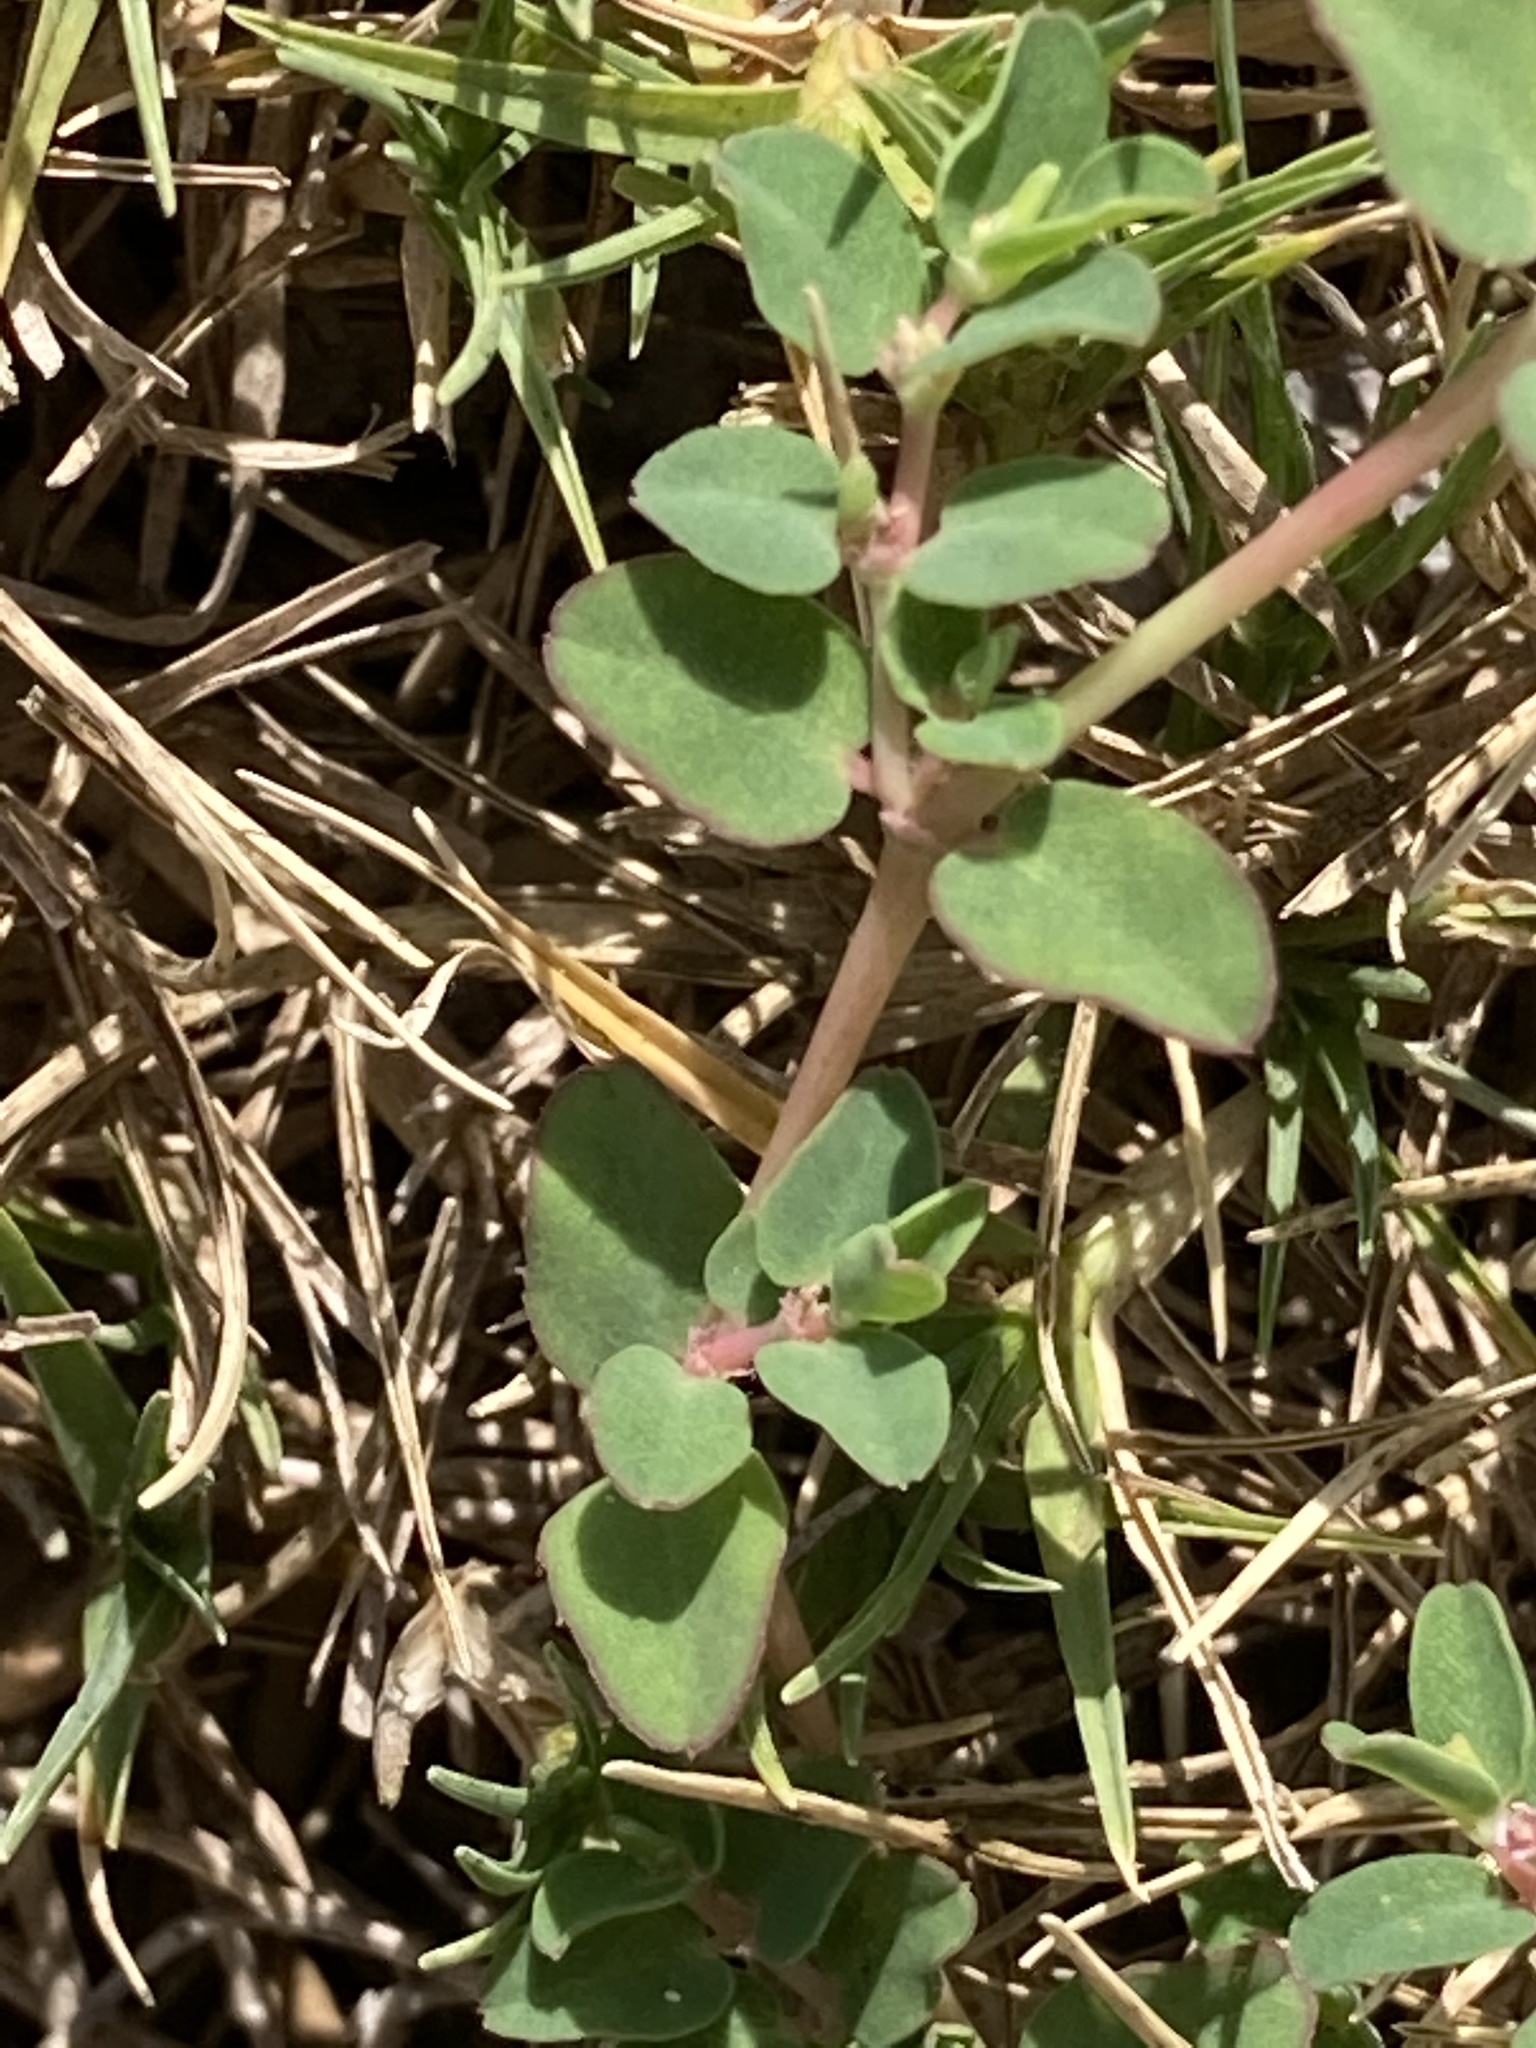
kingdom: Plantae
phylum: Tracheophyta
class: Magnoliopsida
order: Malpighiales
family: Euphorbiaceae
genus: Euphorbia
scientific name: Euphorbia serpens
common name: Matted sandmat
